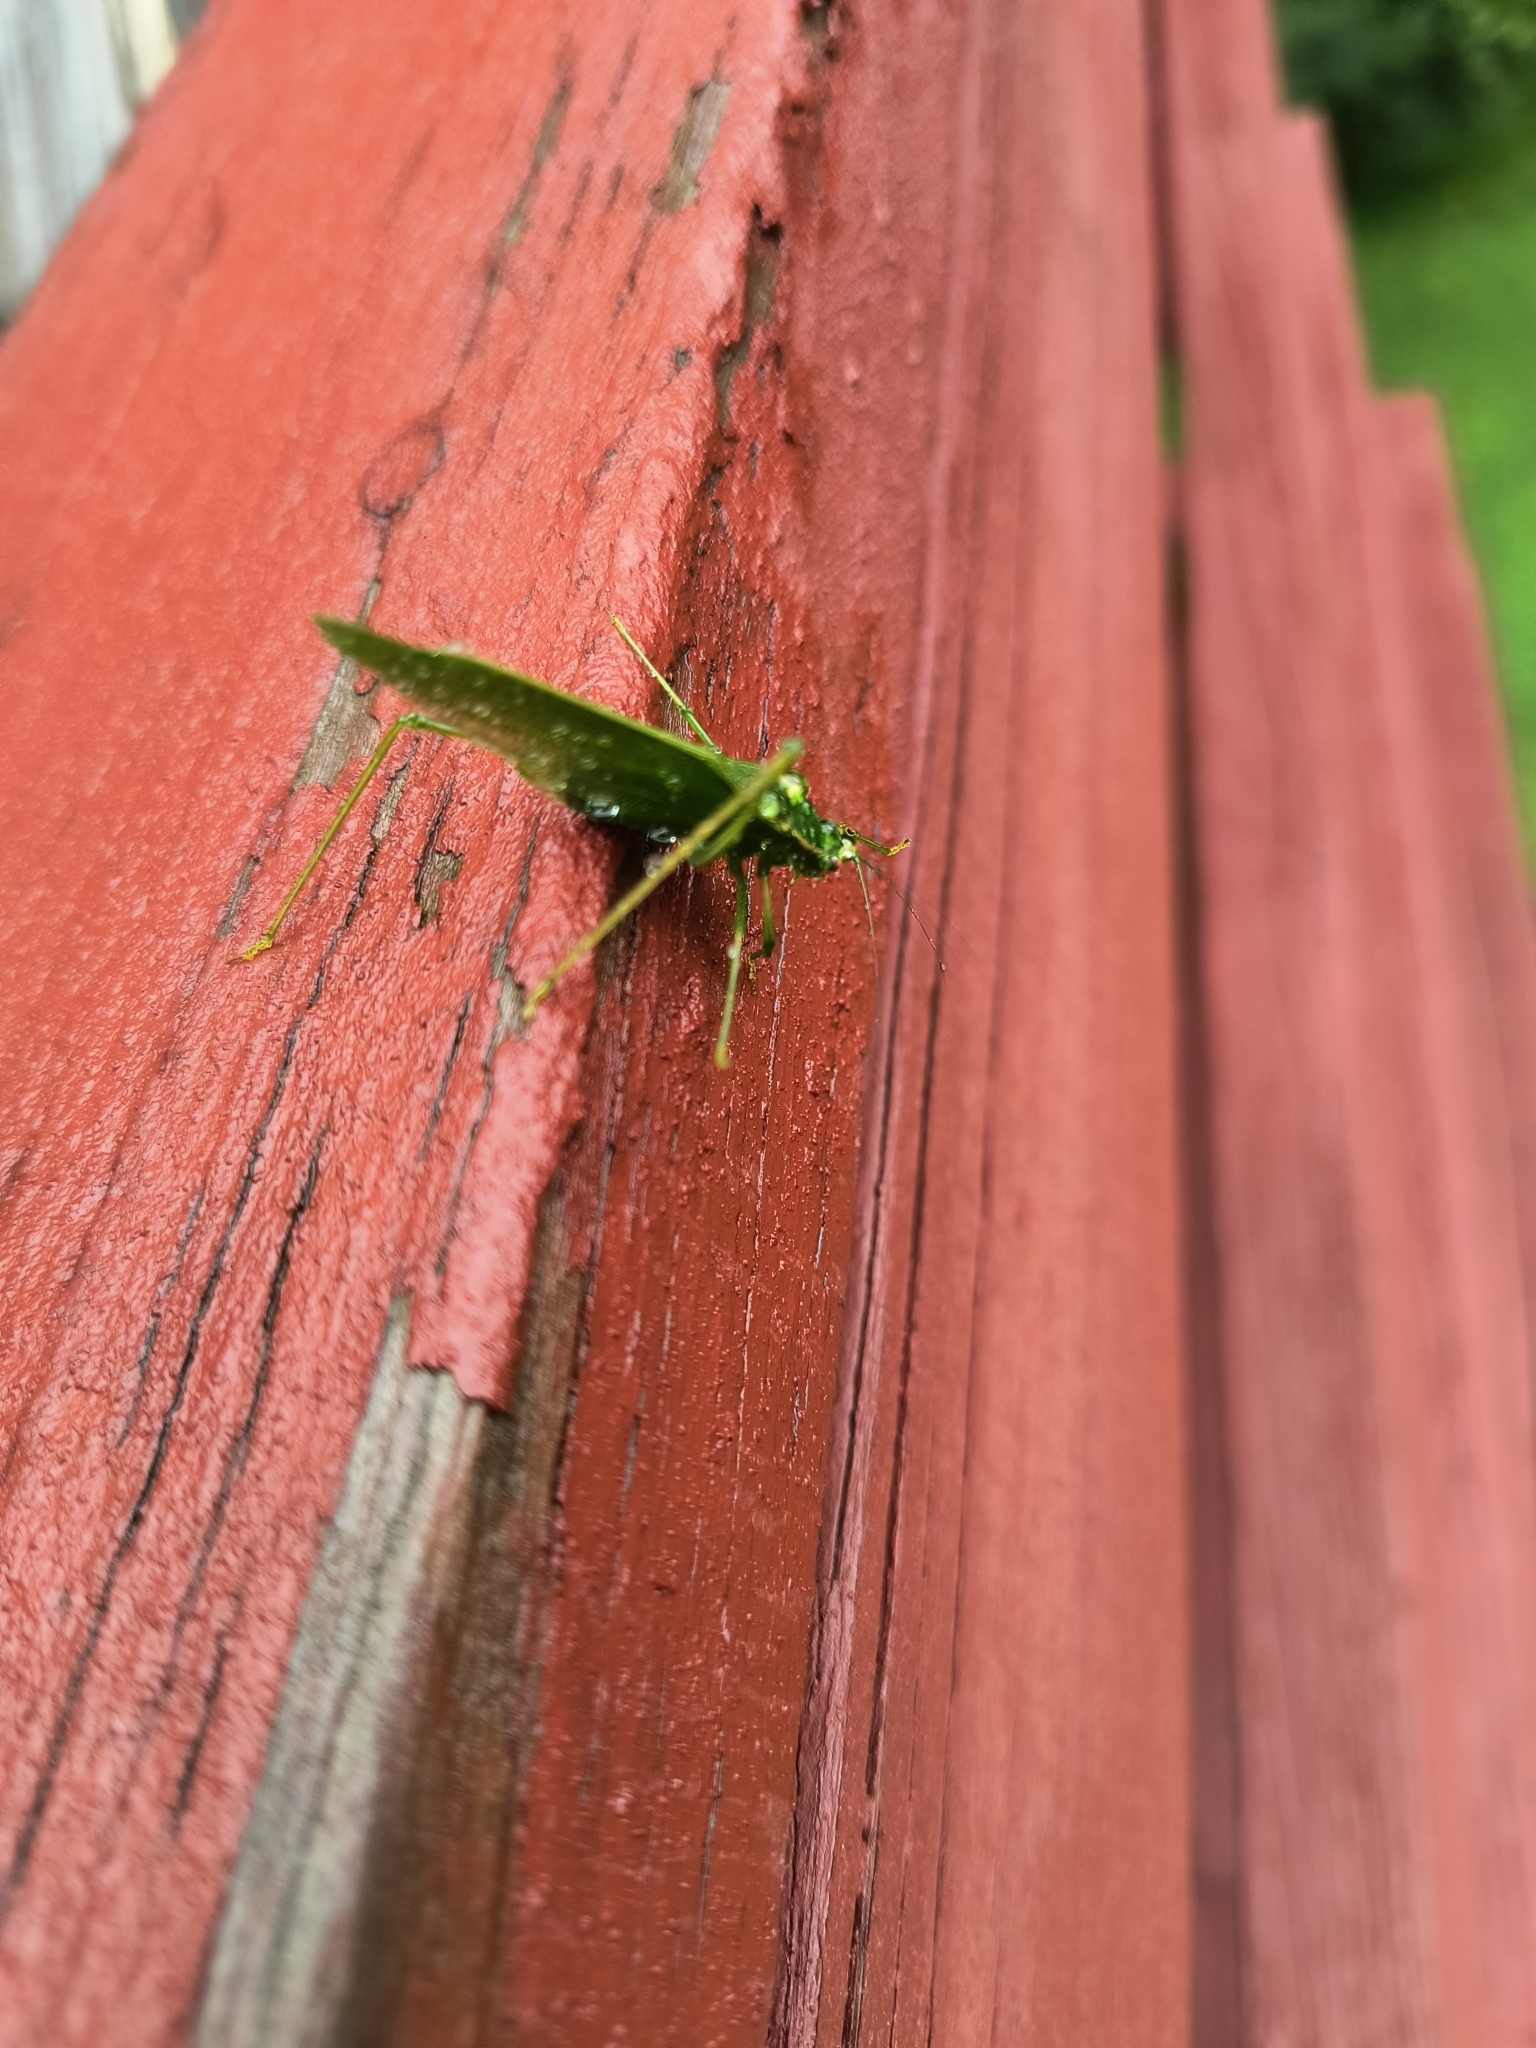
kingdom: Animalia
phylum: Arthropoda
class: Insecta
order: Orthoptera
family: Tettigoniidae
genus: Scudderia
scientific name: Scudderia septentrionalis
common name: Northern bush-katydid
